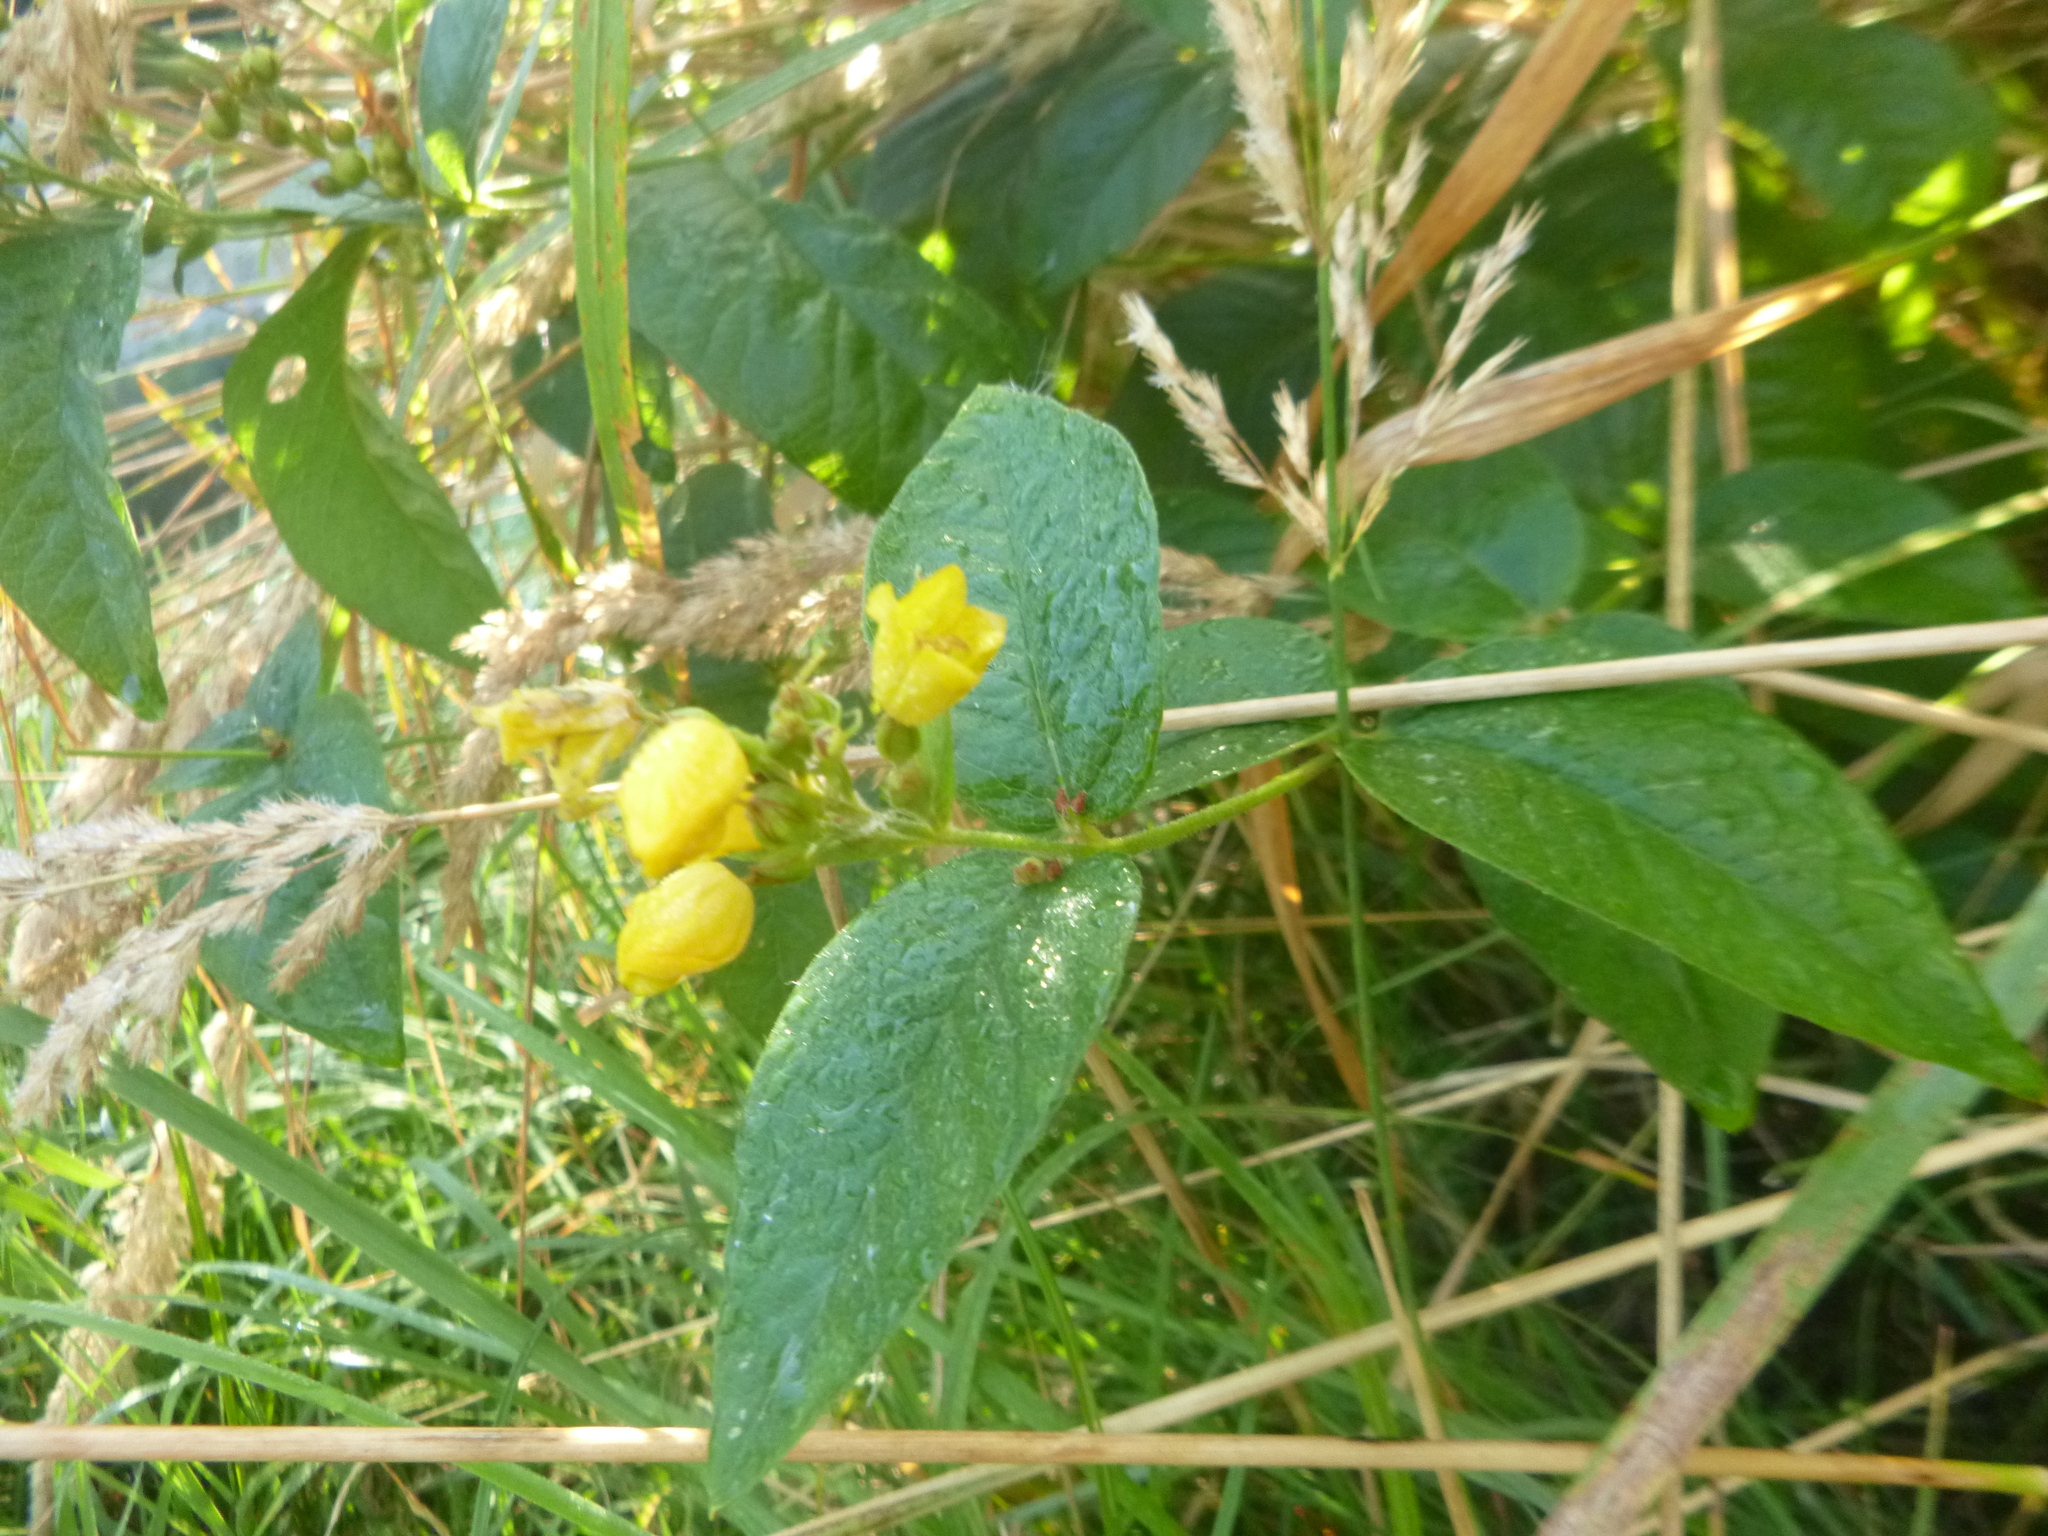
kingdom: Plantae
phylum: Tracheophyta
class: Magnoliopsida
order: Ericales
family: Primulaceae
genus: Lysimachia
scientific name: Lysimachia vulgaris
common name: Yellow loosestrife
